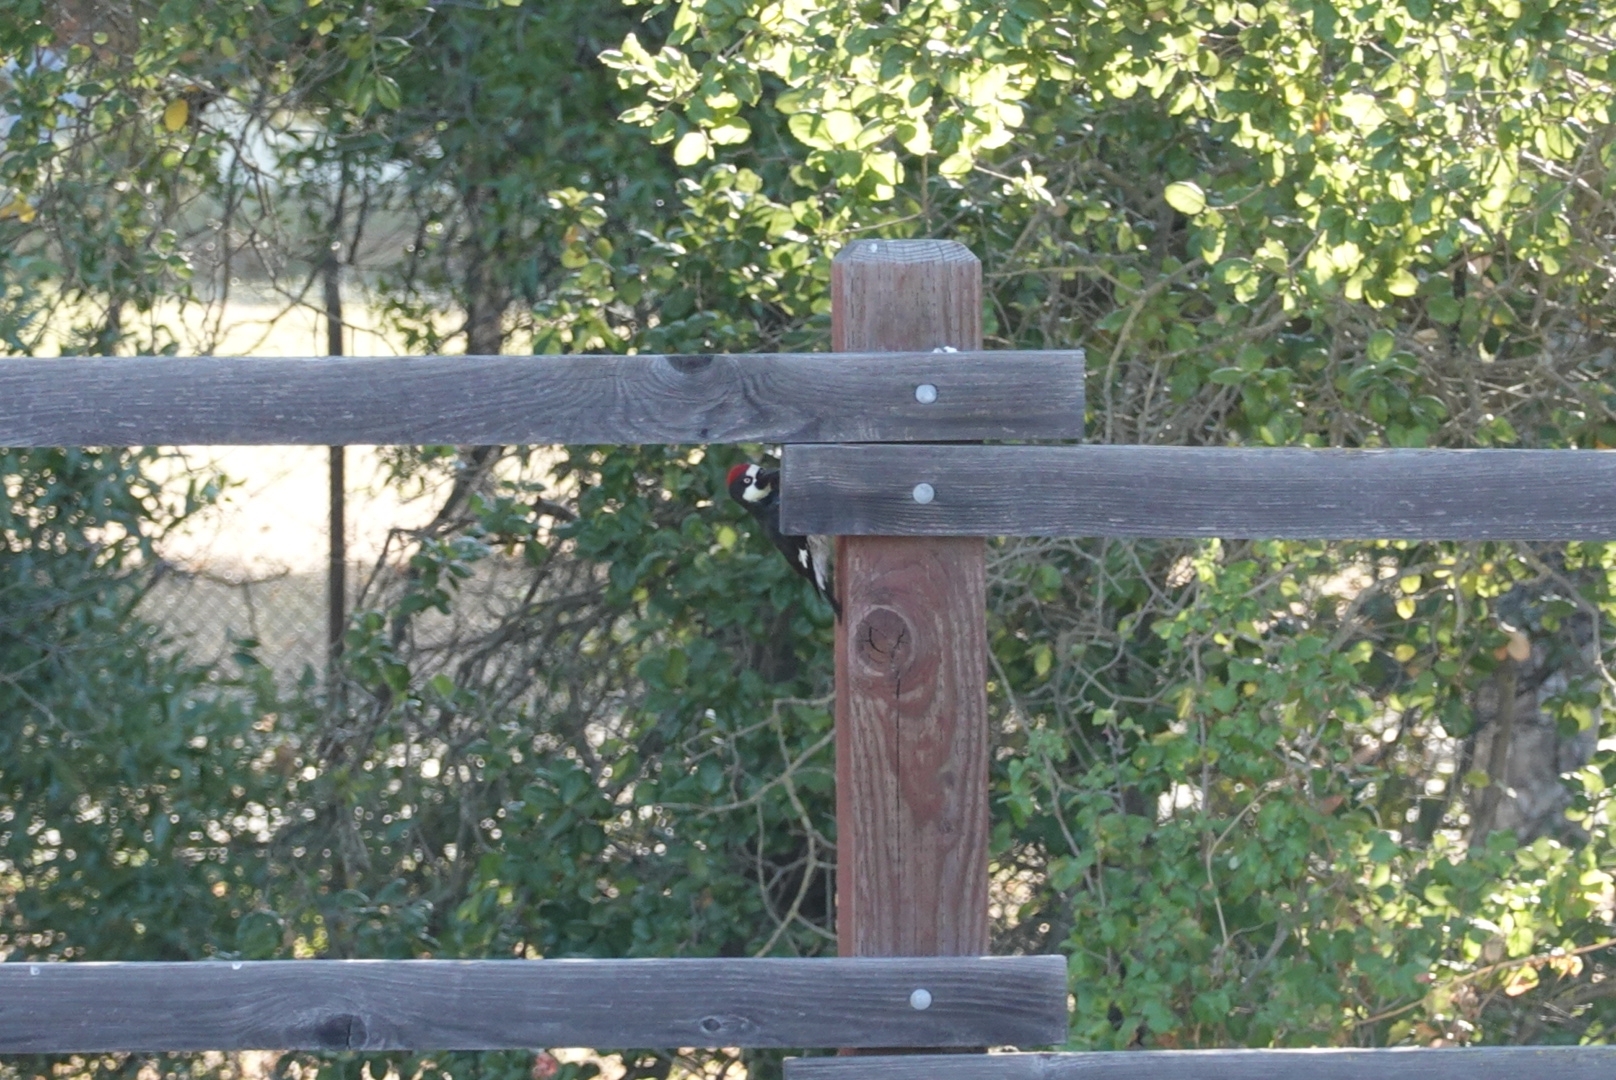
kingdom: Animalia
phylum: Chordata
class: Aves
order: Piciformes
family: Picidae
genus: Melanerpes
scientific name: Melanerpes formicivorus
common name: Acorn woodpecker
